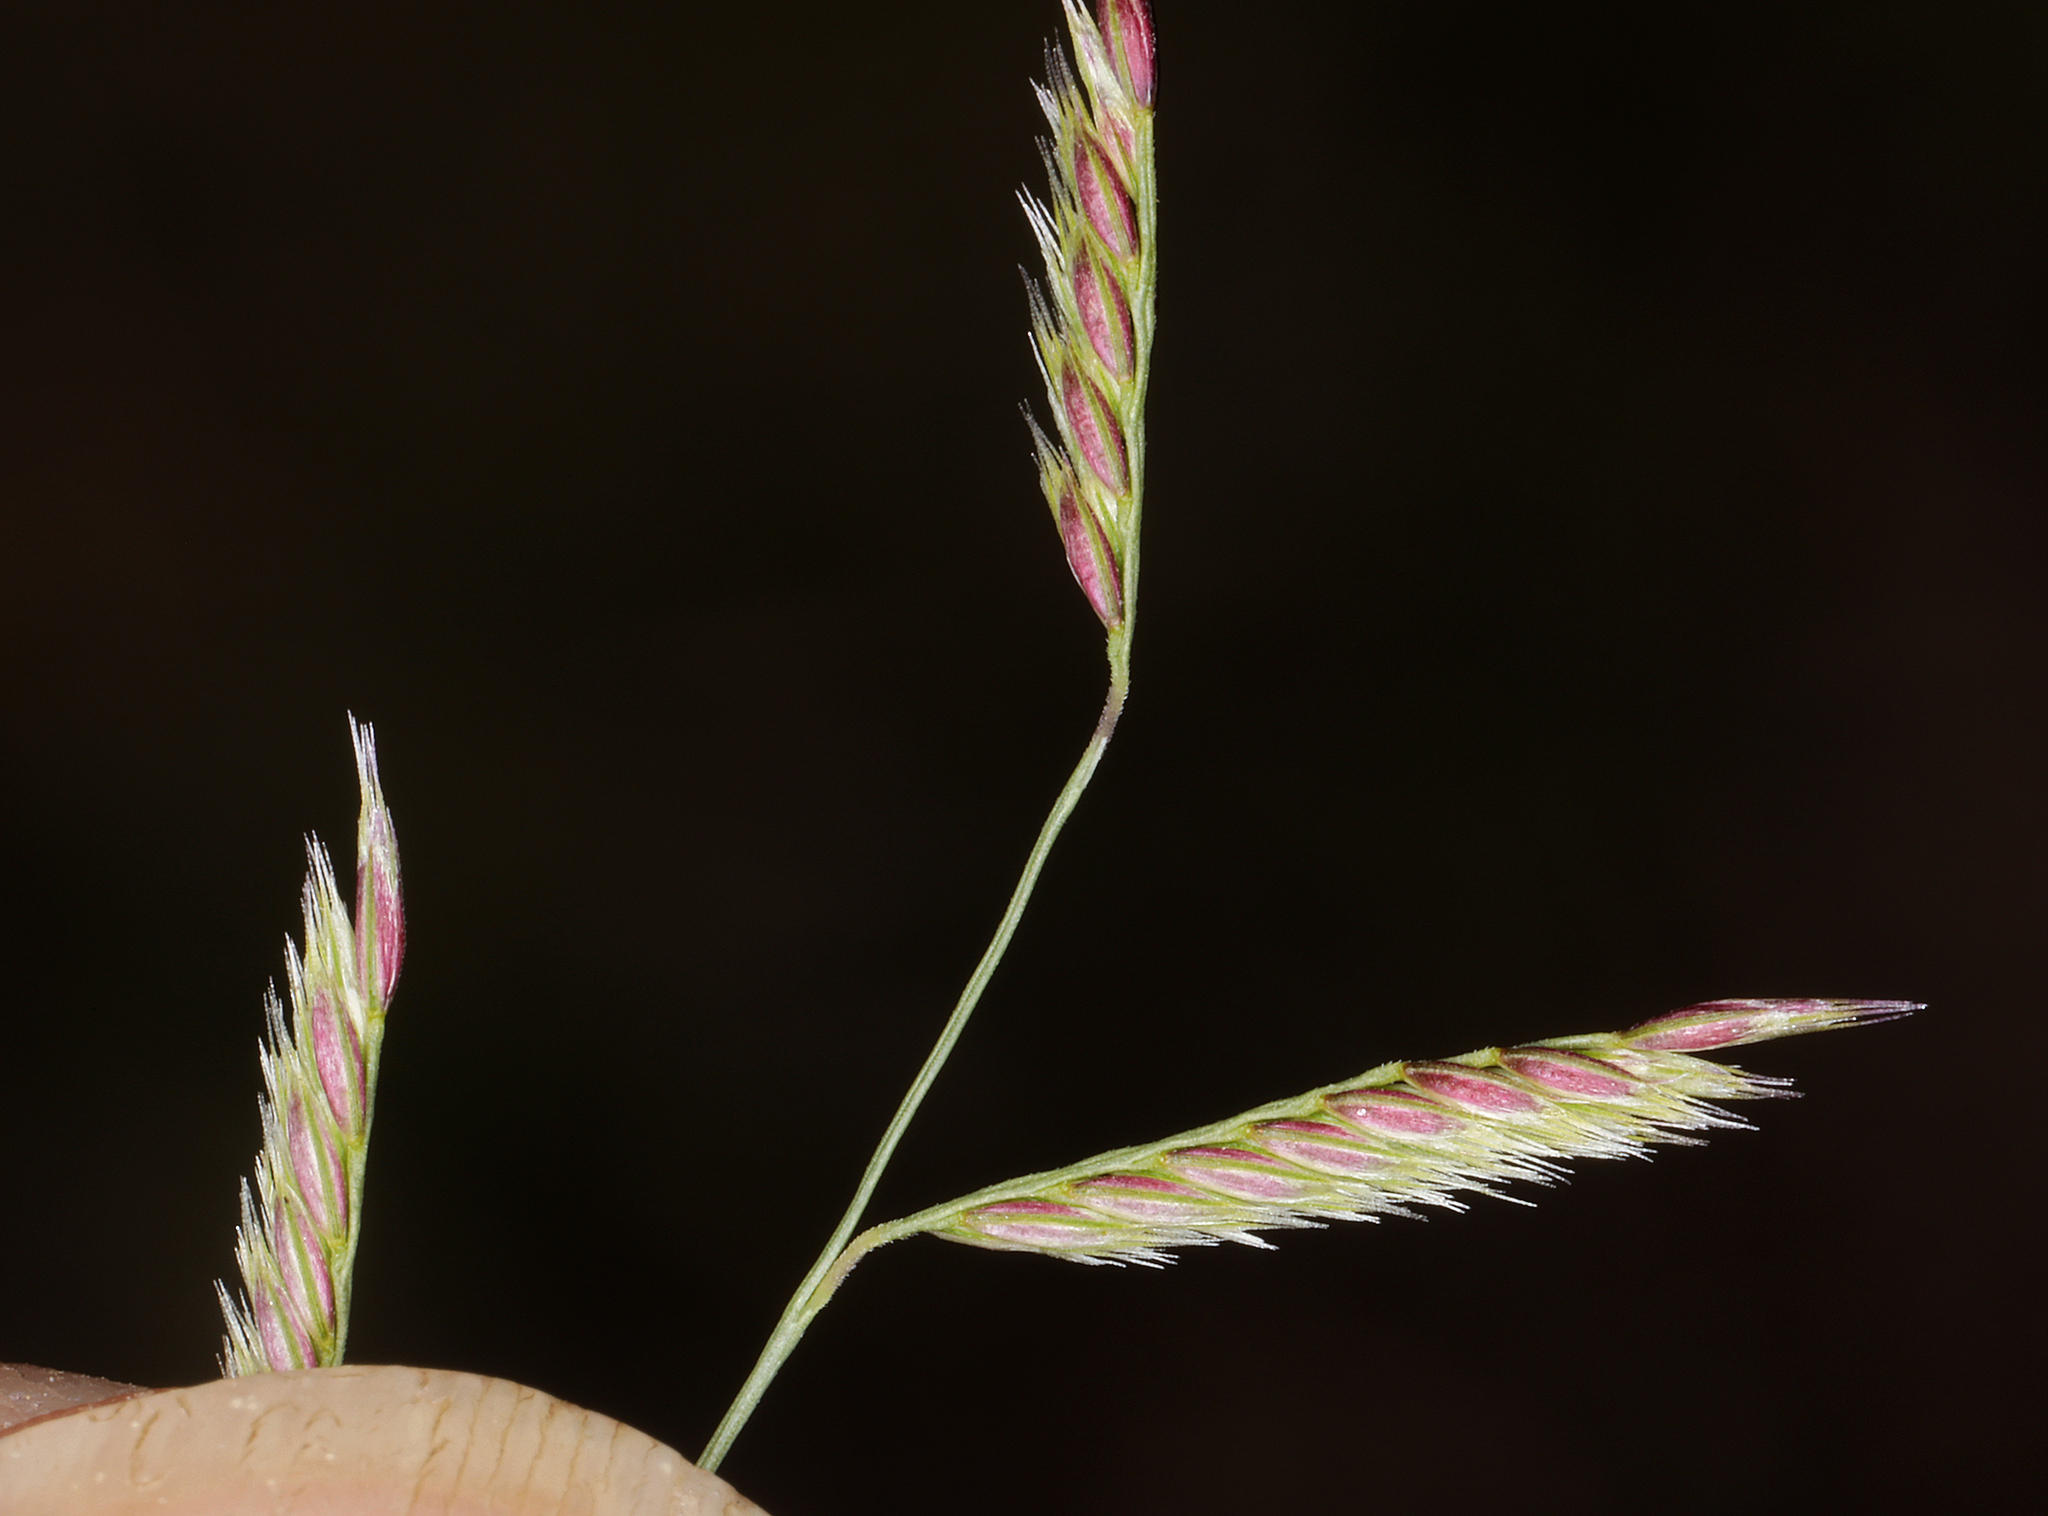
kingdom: Plantae
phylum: Tracheophyta
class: Liliopsida
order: Poales
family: Poaceae
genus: Bouteloua
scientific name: Bouteloua barbata
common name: Six-weeks grama
